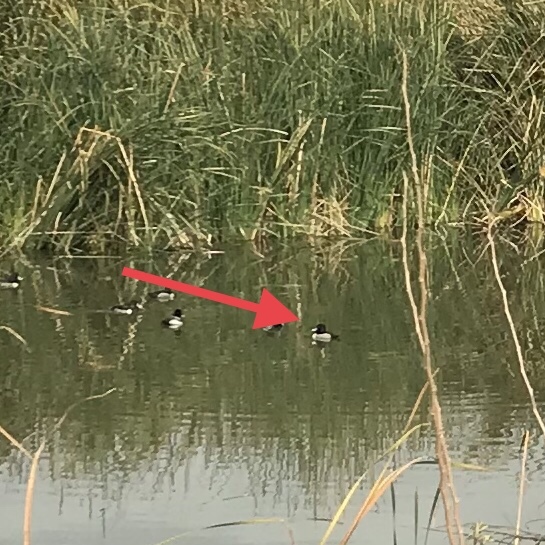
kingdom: Animalia
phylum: Chordata
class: Aves
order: Anseriformes
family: Anatidae
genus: Aythya
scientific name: Aythya collaris
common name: Ring-necked duck
